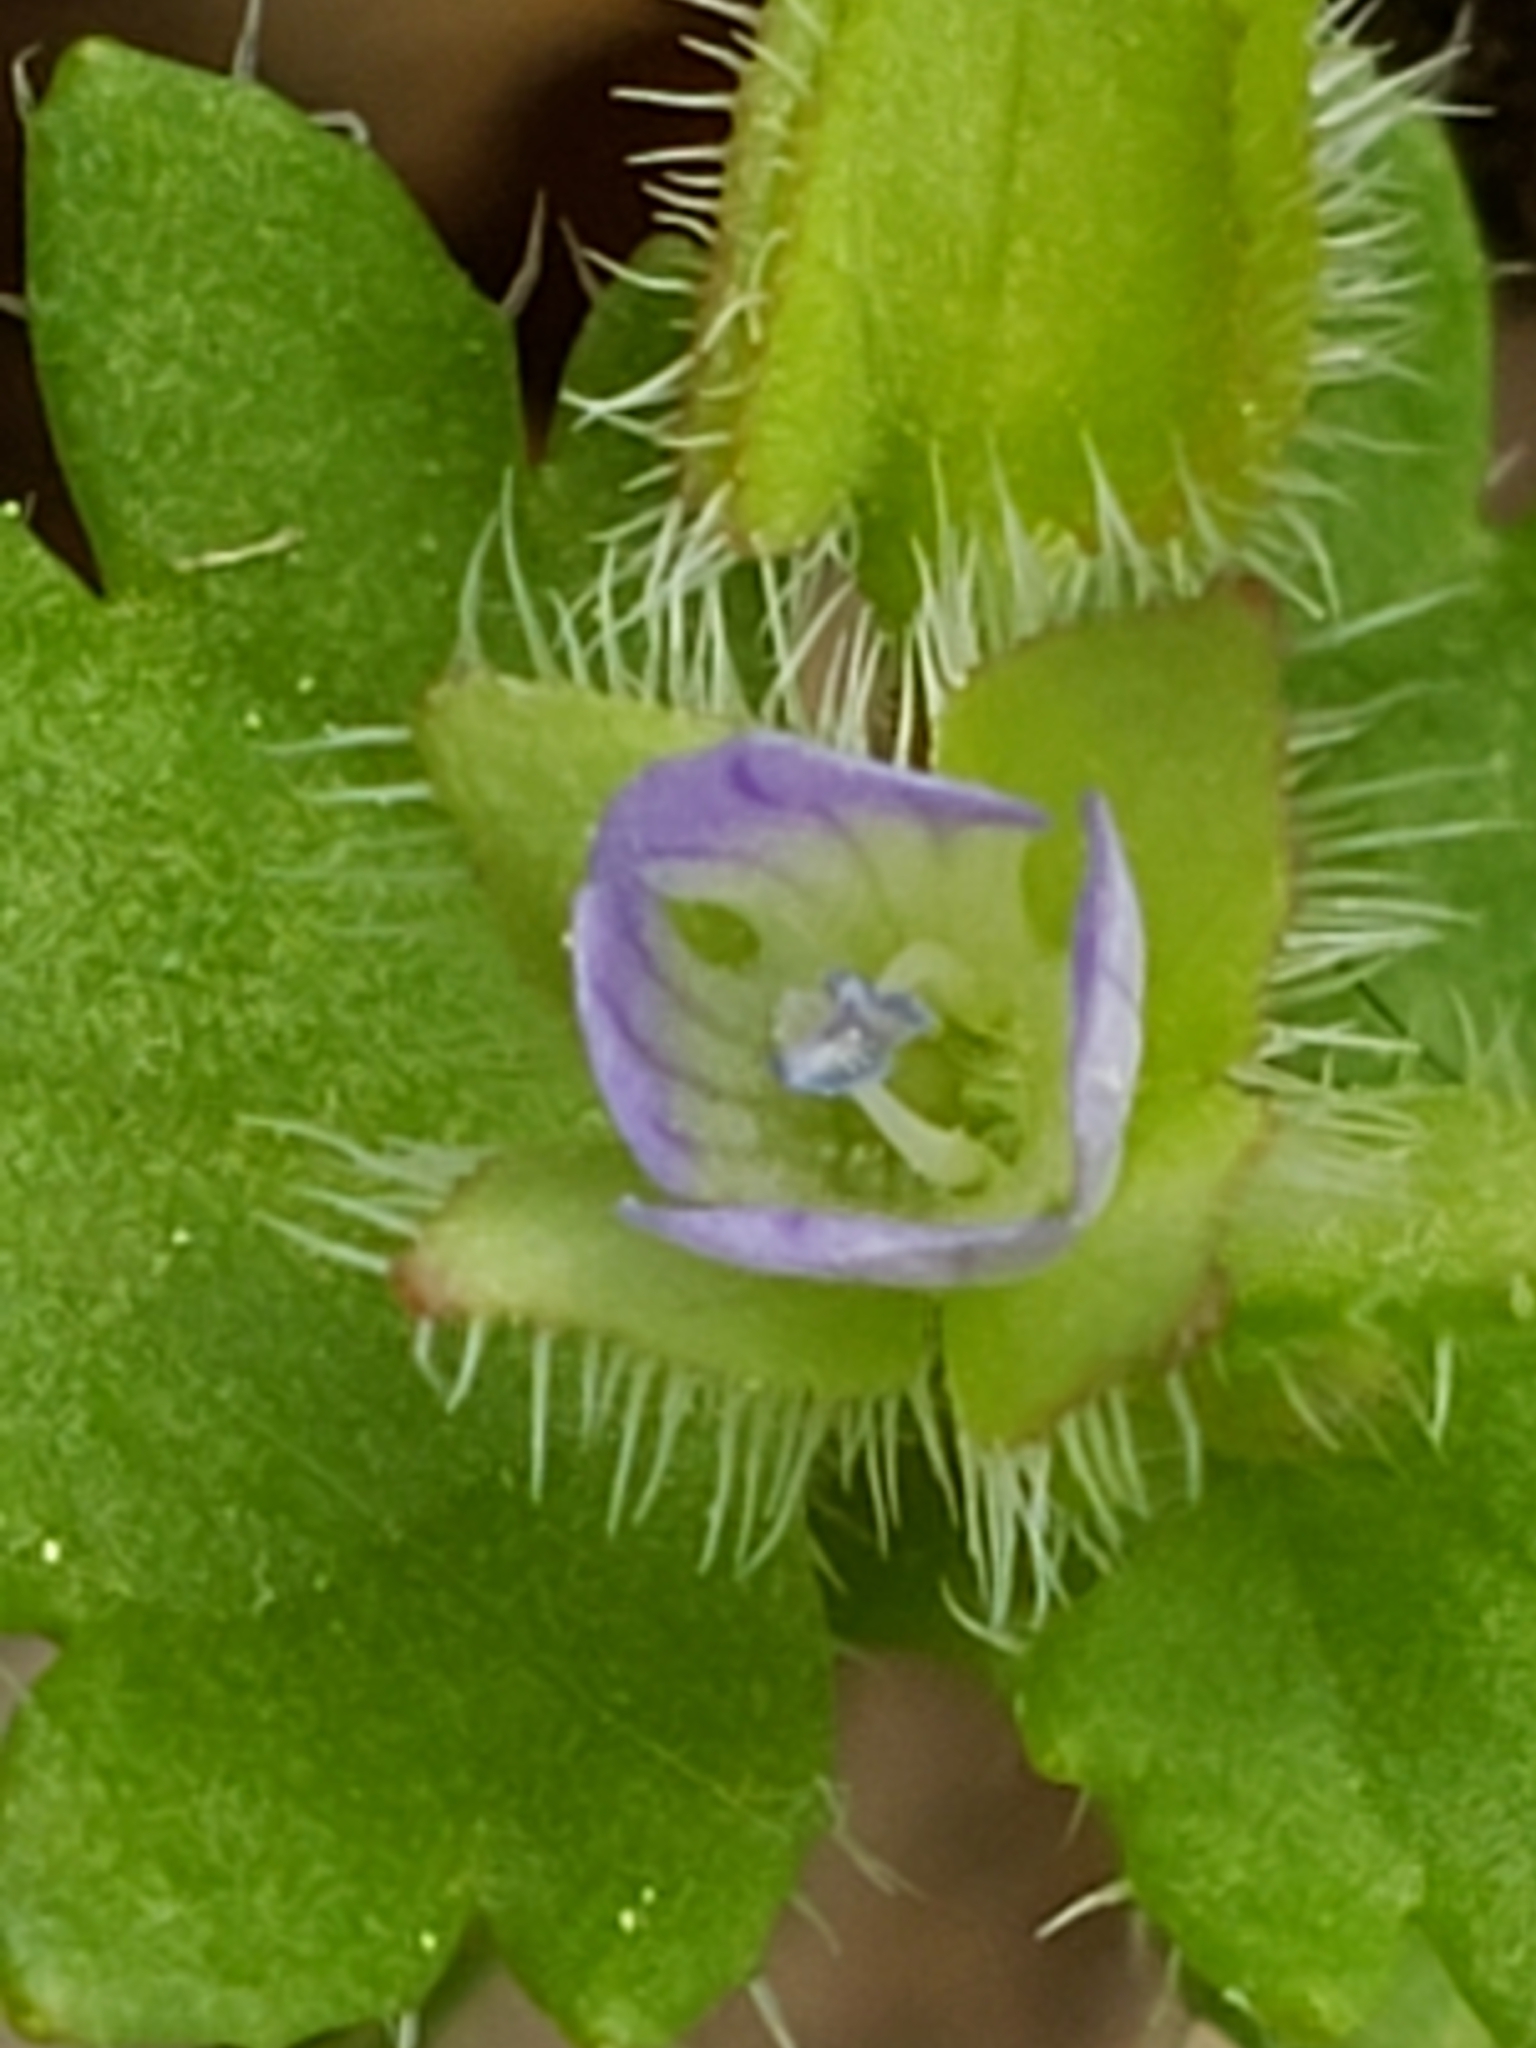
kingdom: Plantae
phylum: Tracheophyta
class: Magnoliopsida
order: Lamiales
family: Plantaginaceae
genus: Veronica
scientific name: Veronica hederifolia
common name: Ivy-leaved speedwell
